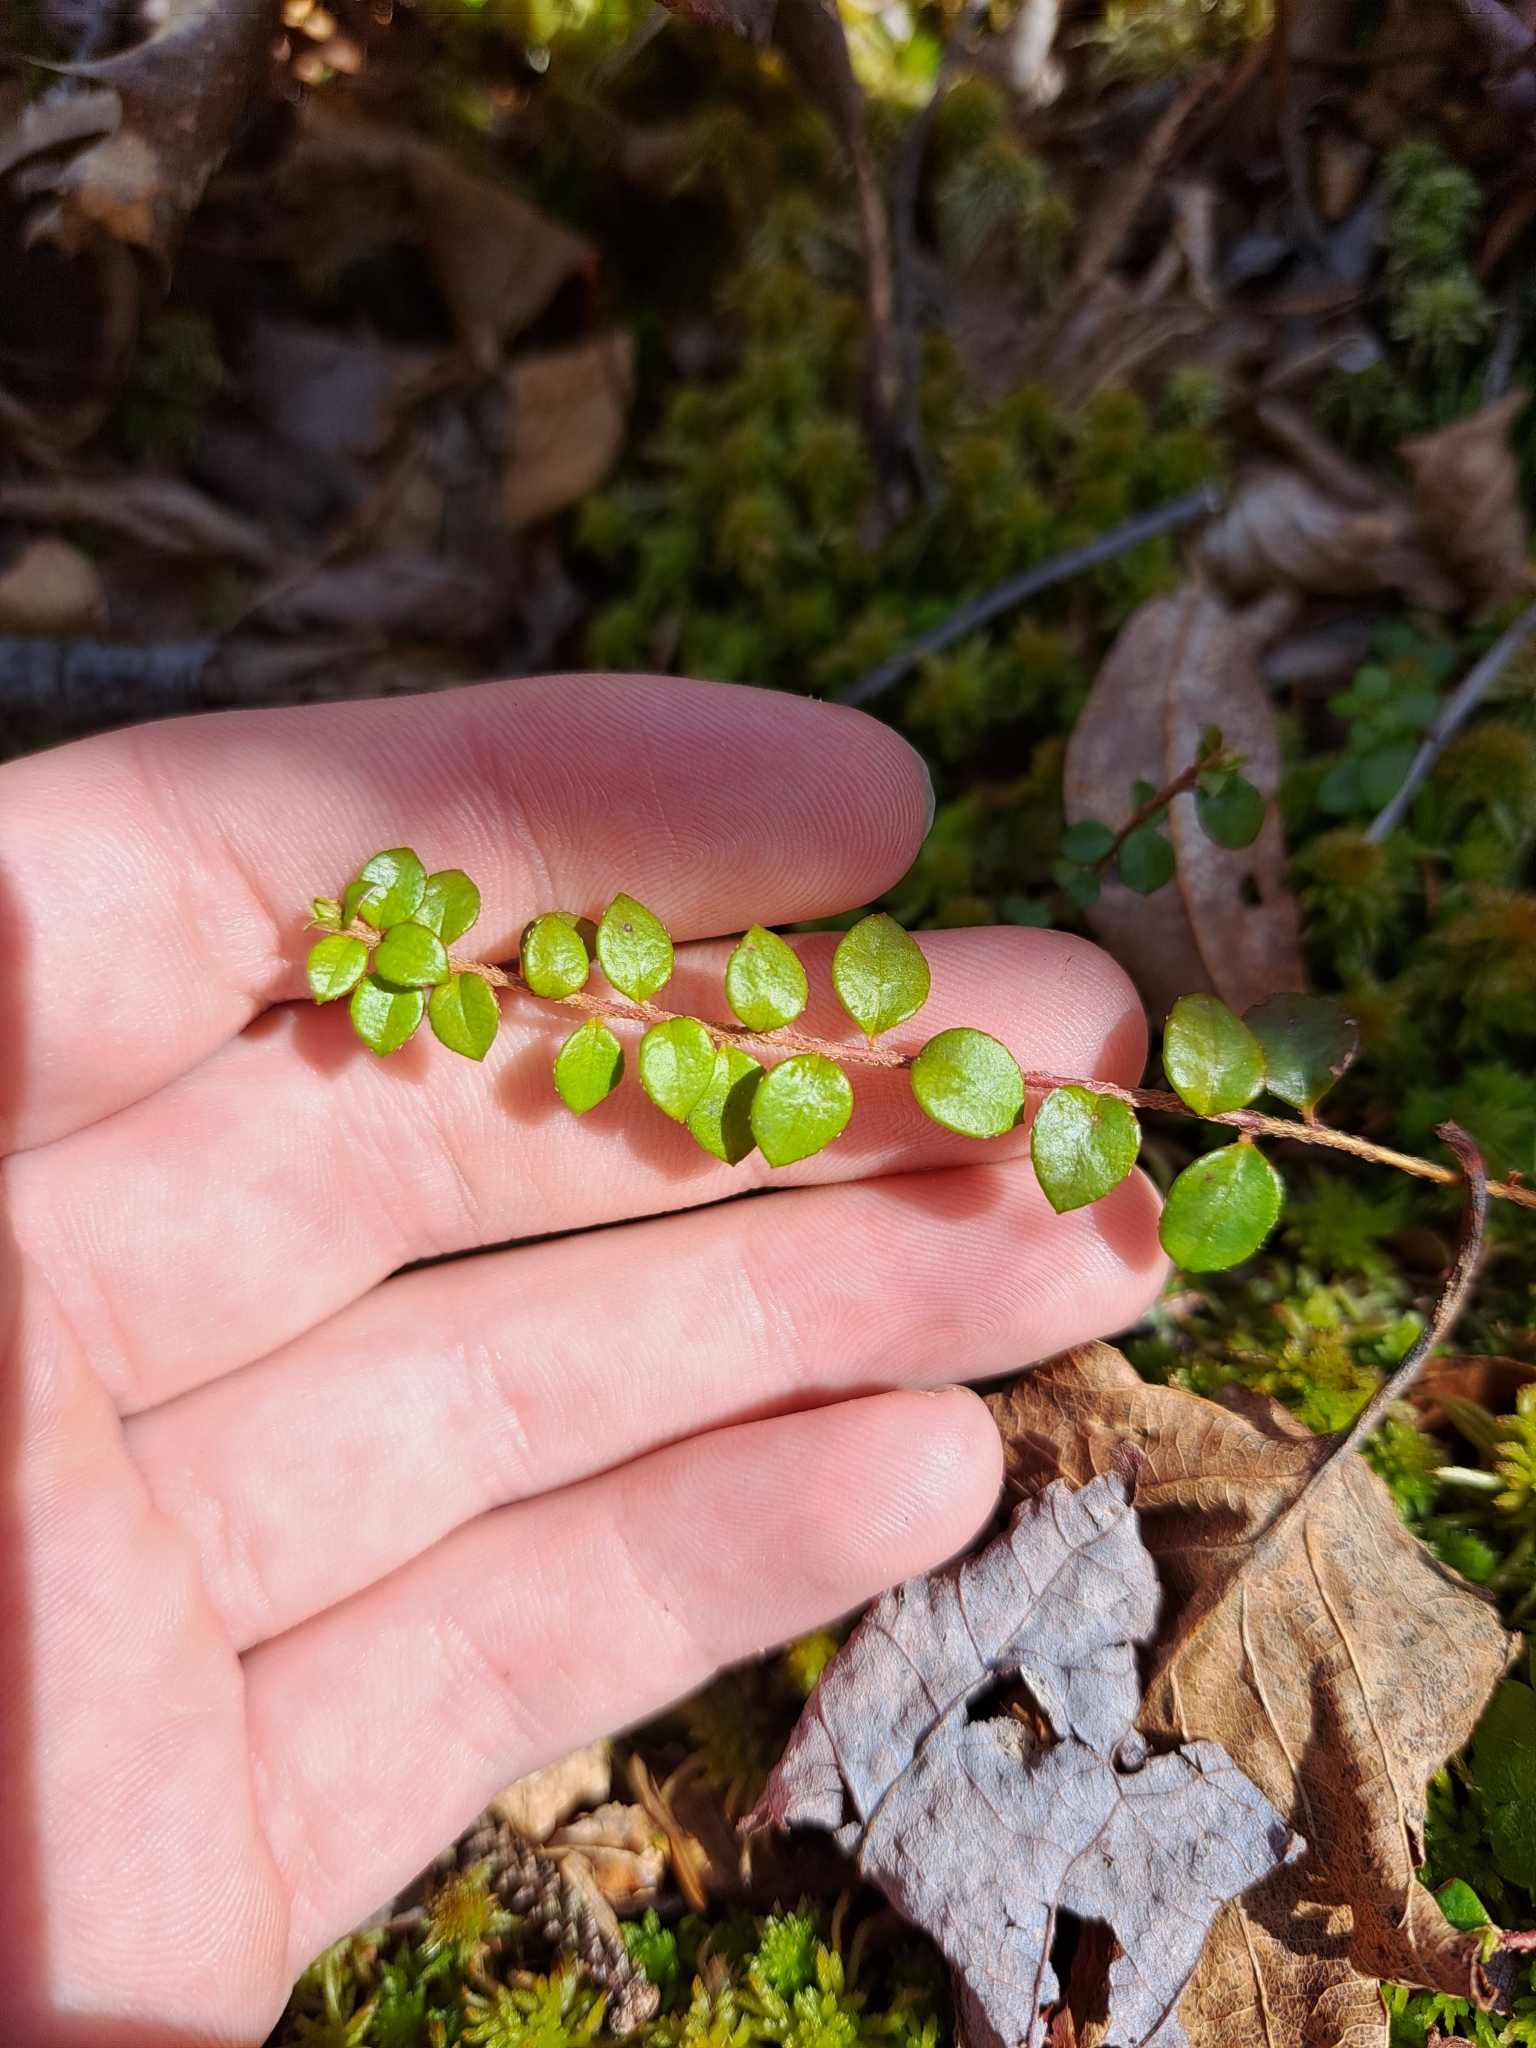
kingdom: Plantae
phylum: Tracheophyta
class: Magnoliopsida
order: Ericales
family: Ericaceae
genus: Gaultheria
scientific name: Gaultheria hispidula
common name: Cancer wintergreen
